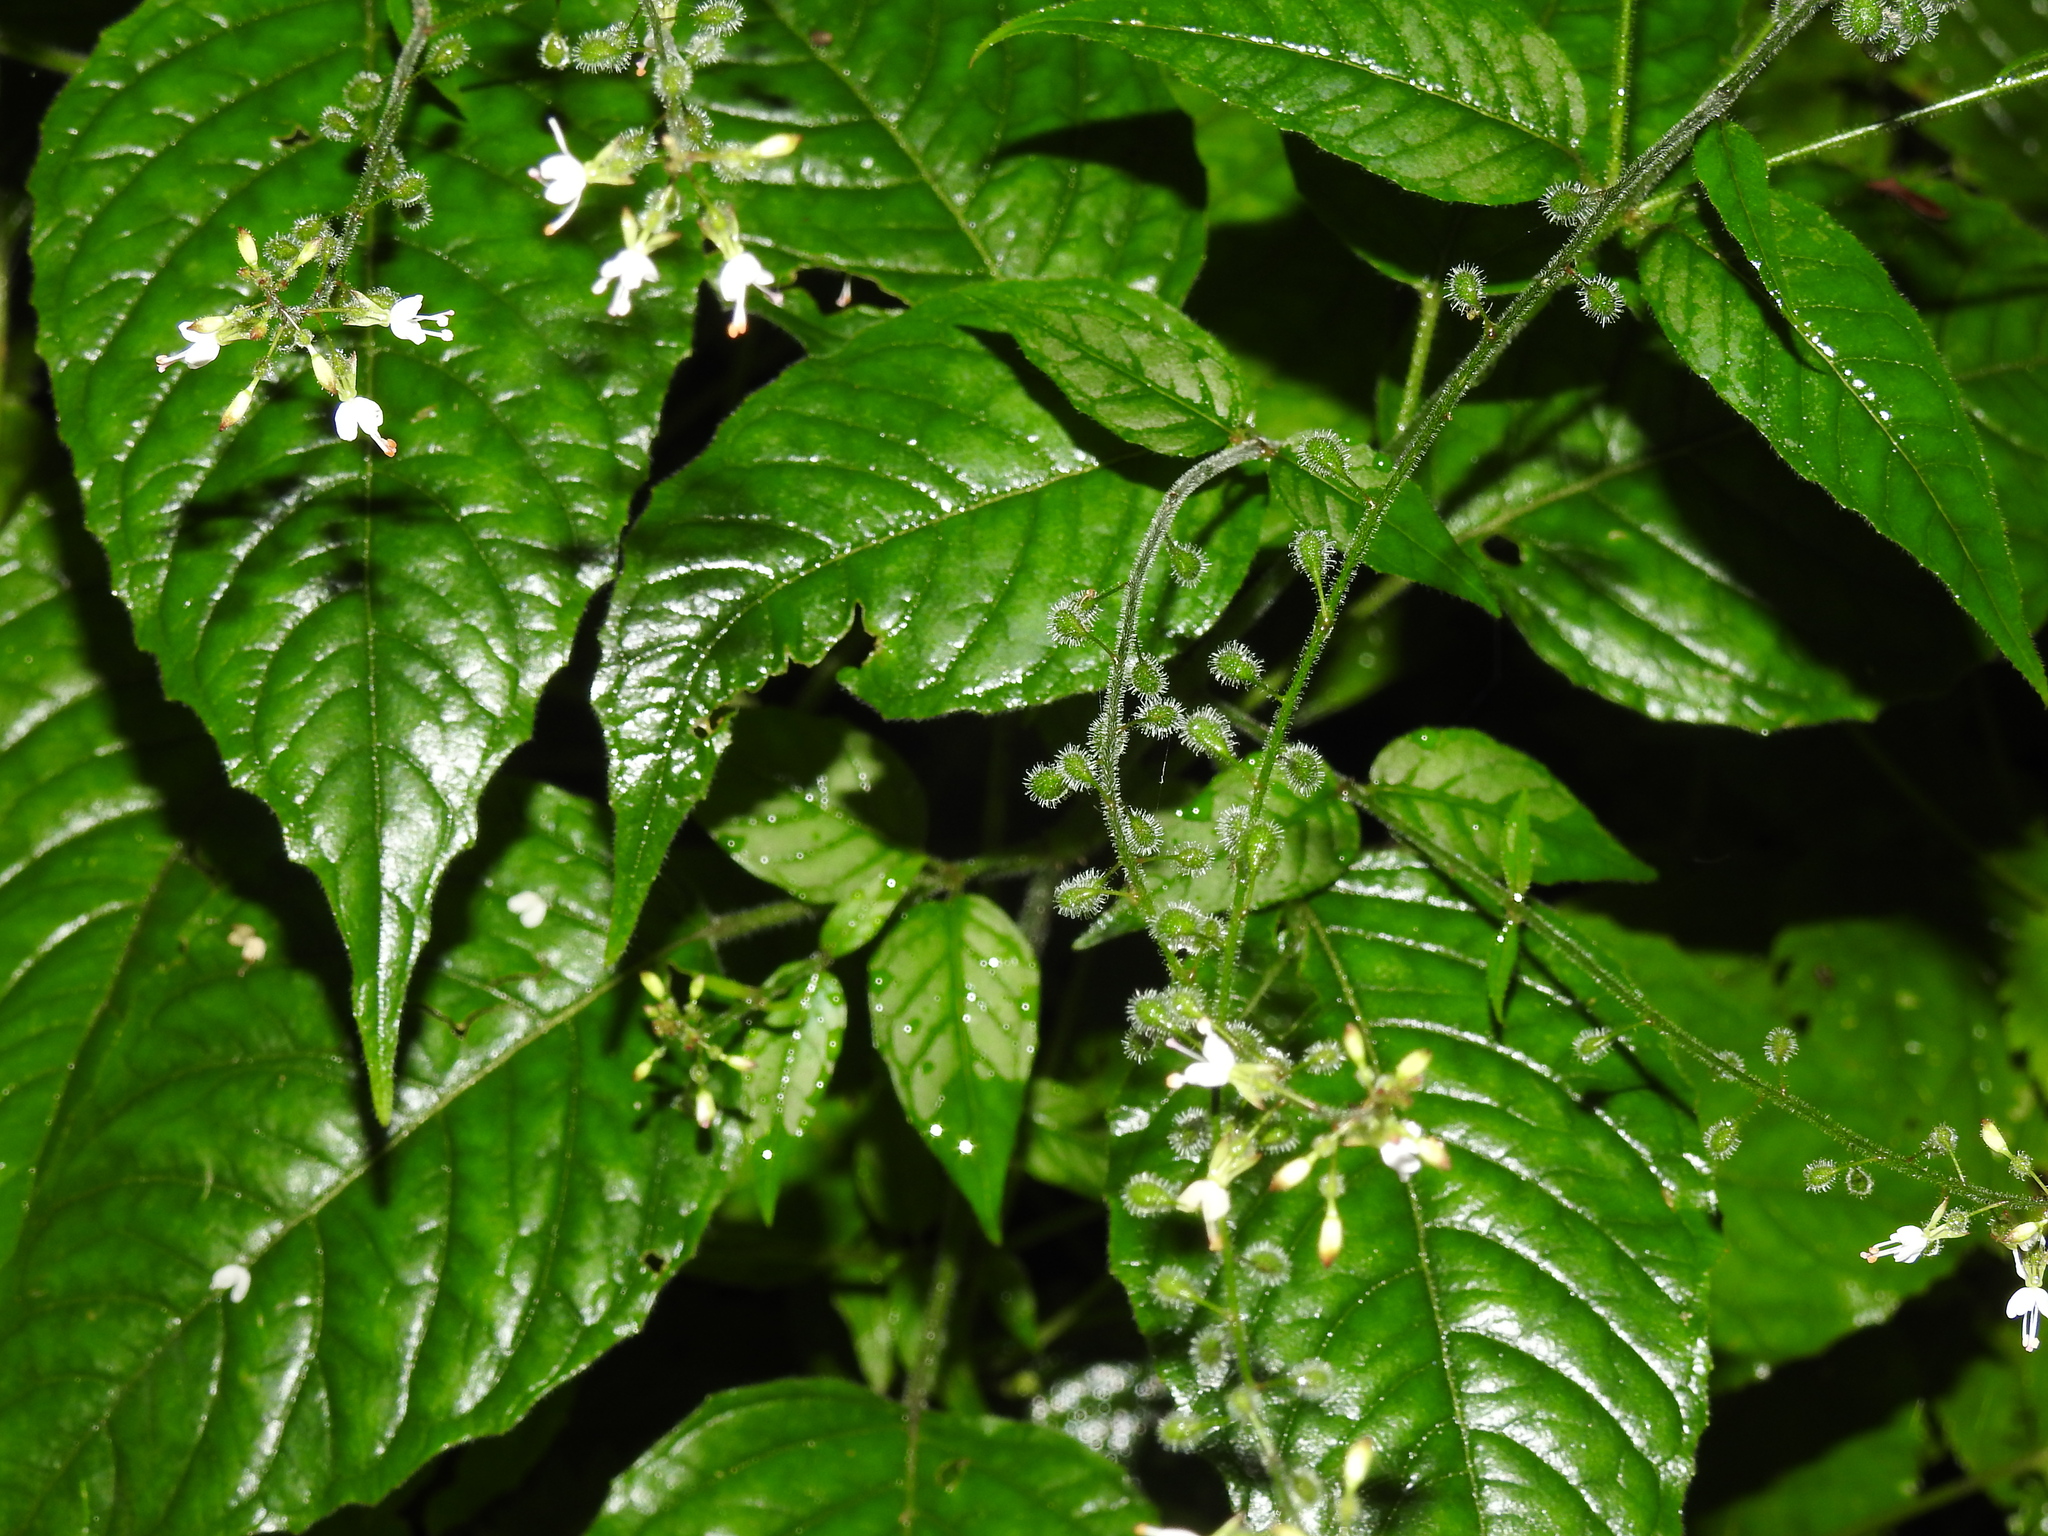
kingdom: Plantae
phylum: Tracheophyta
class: Magnoliopsida
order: Myrtales
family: Onagraceae
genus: Circaea
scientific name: Circaea lutetiana
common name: Enchanter's-nightshade
